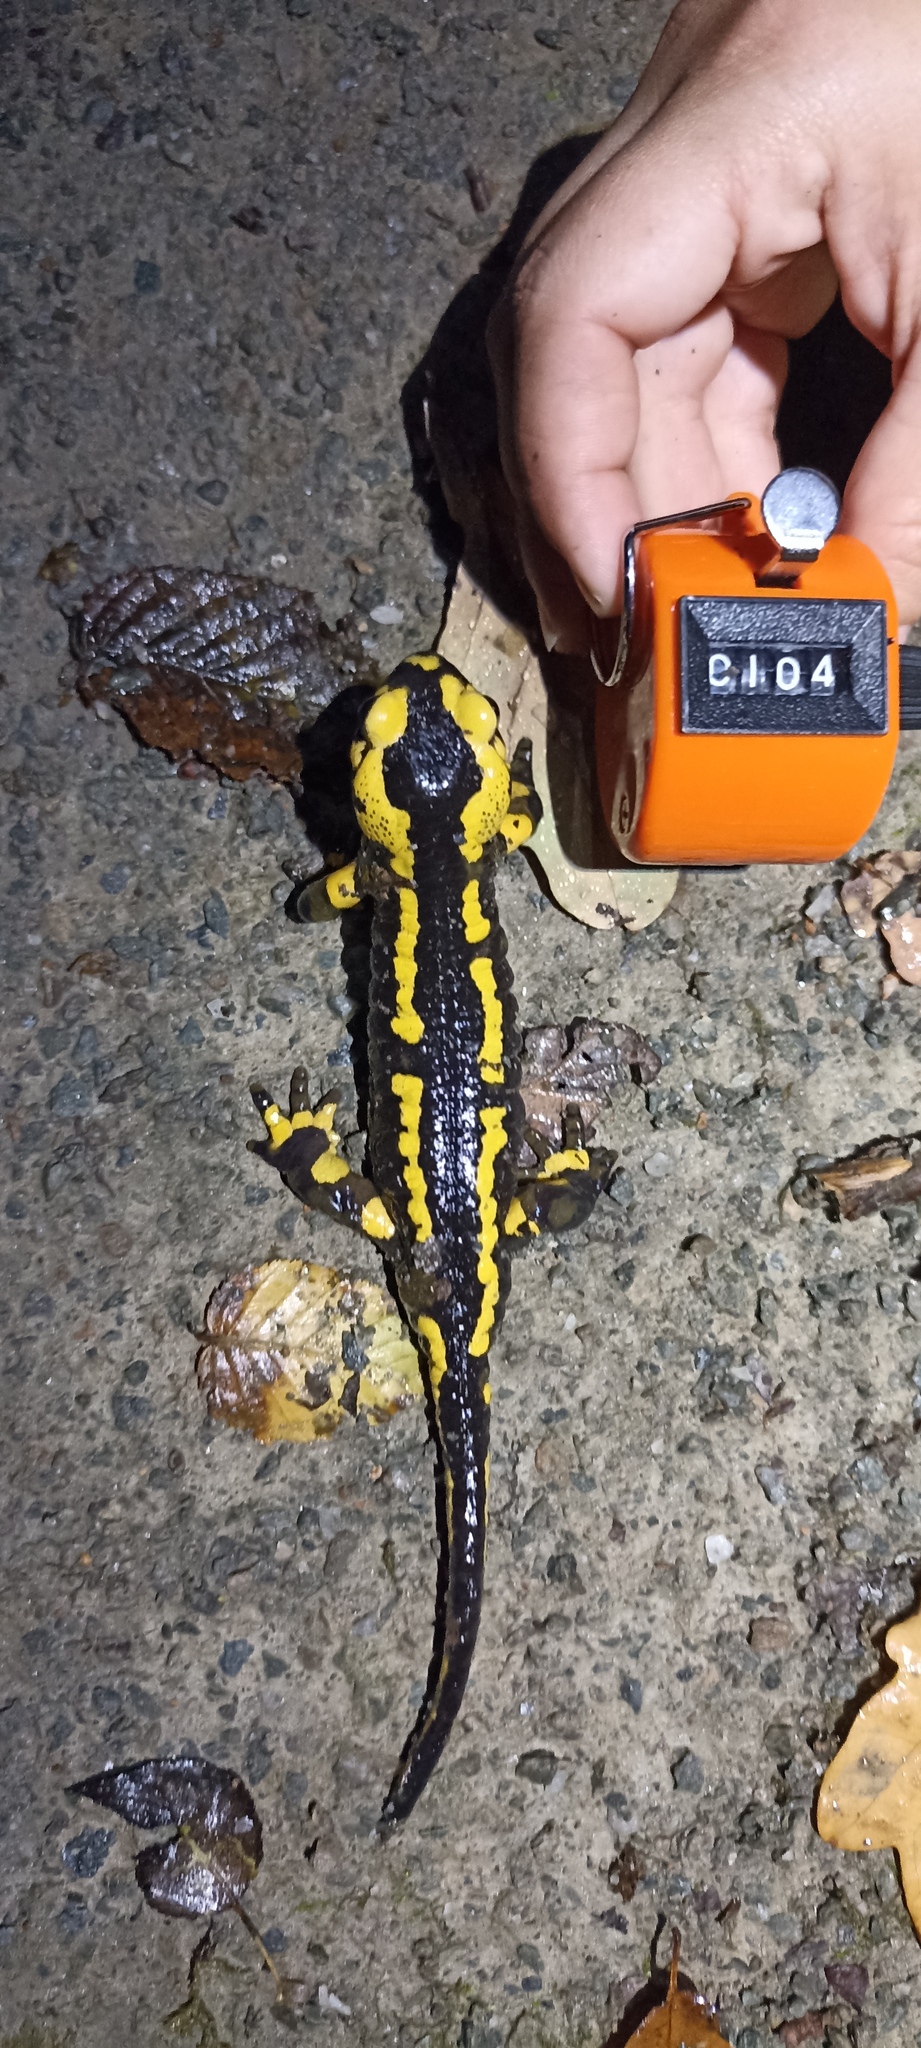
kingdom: Animalia
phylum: Chordata
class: Amphibia
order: Caudata
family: Salamandridae
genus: Salamandra
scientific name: Salamandra salamandra
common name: Fire salamander
